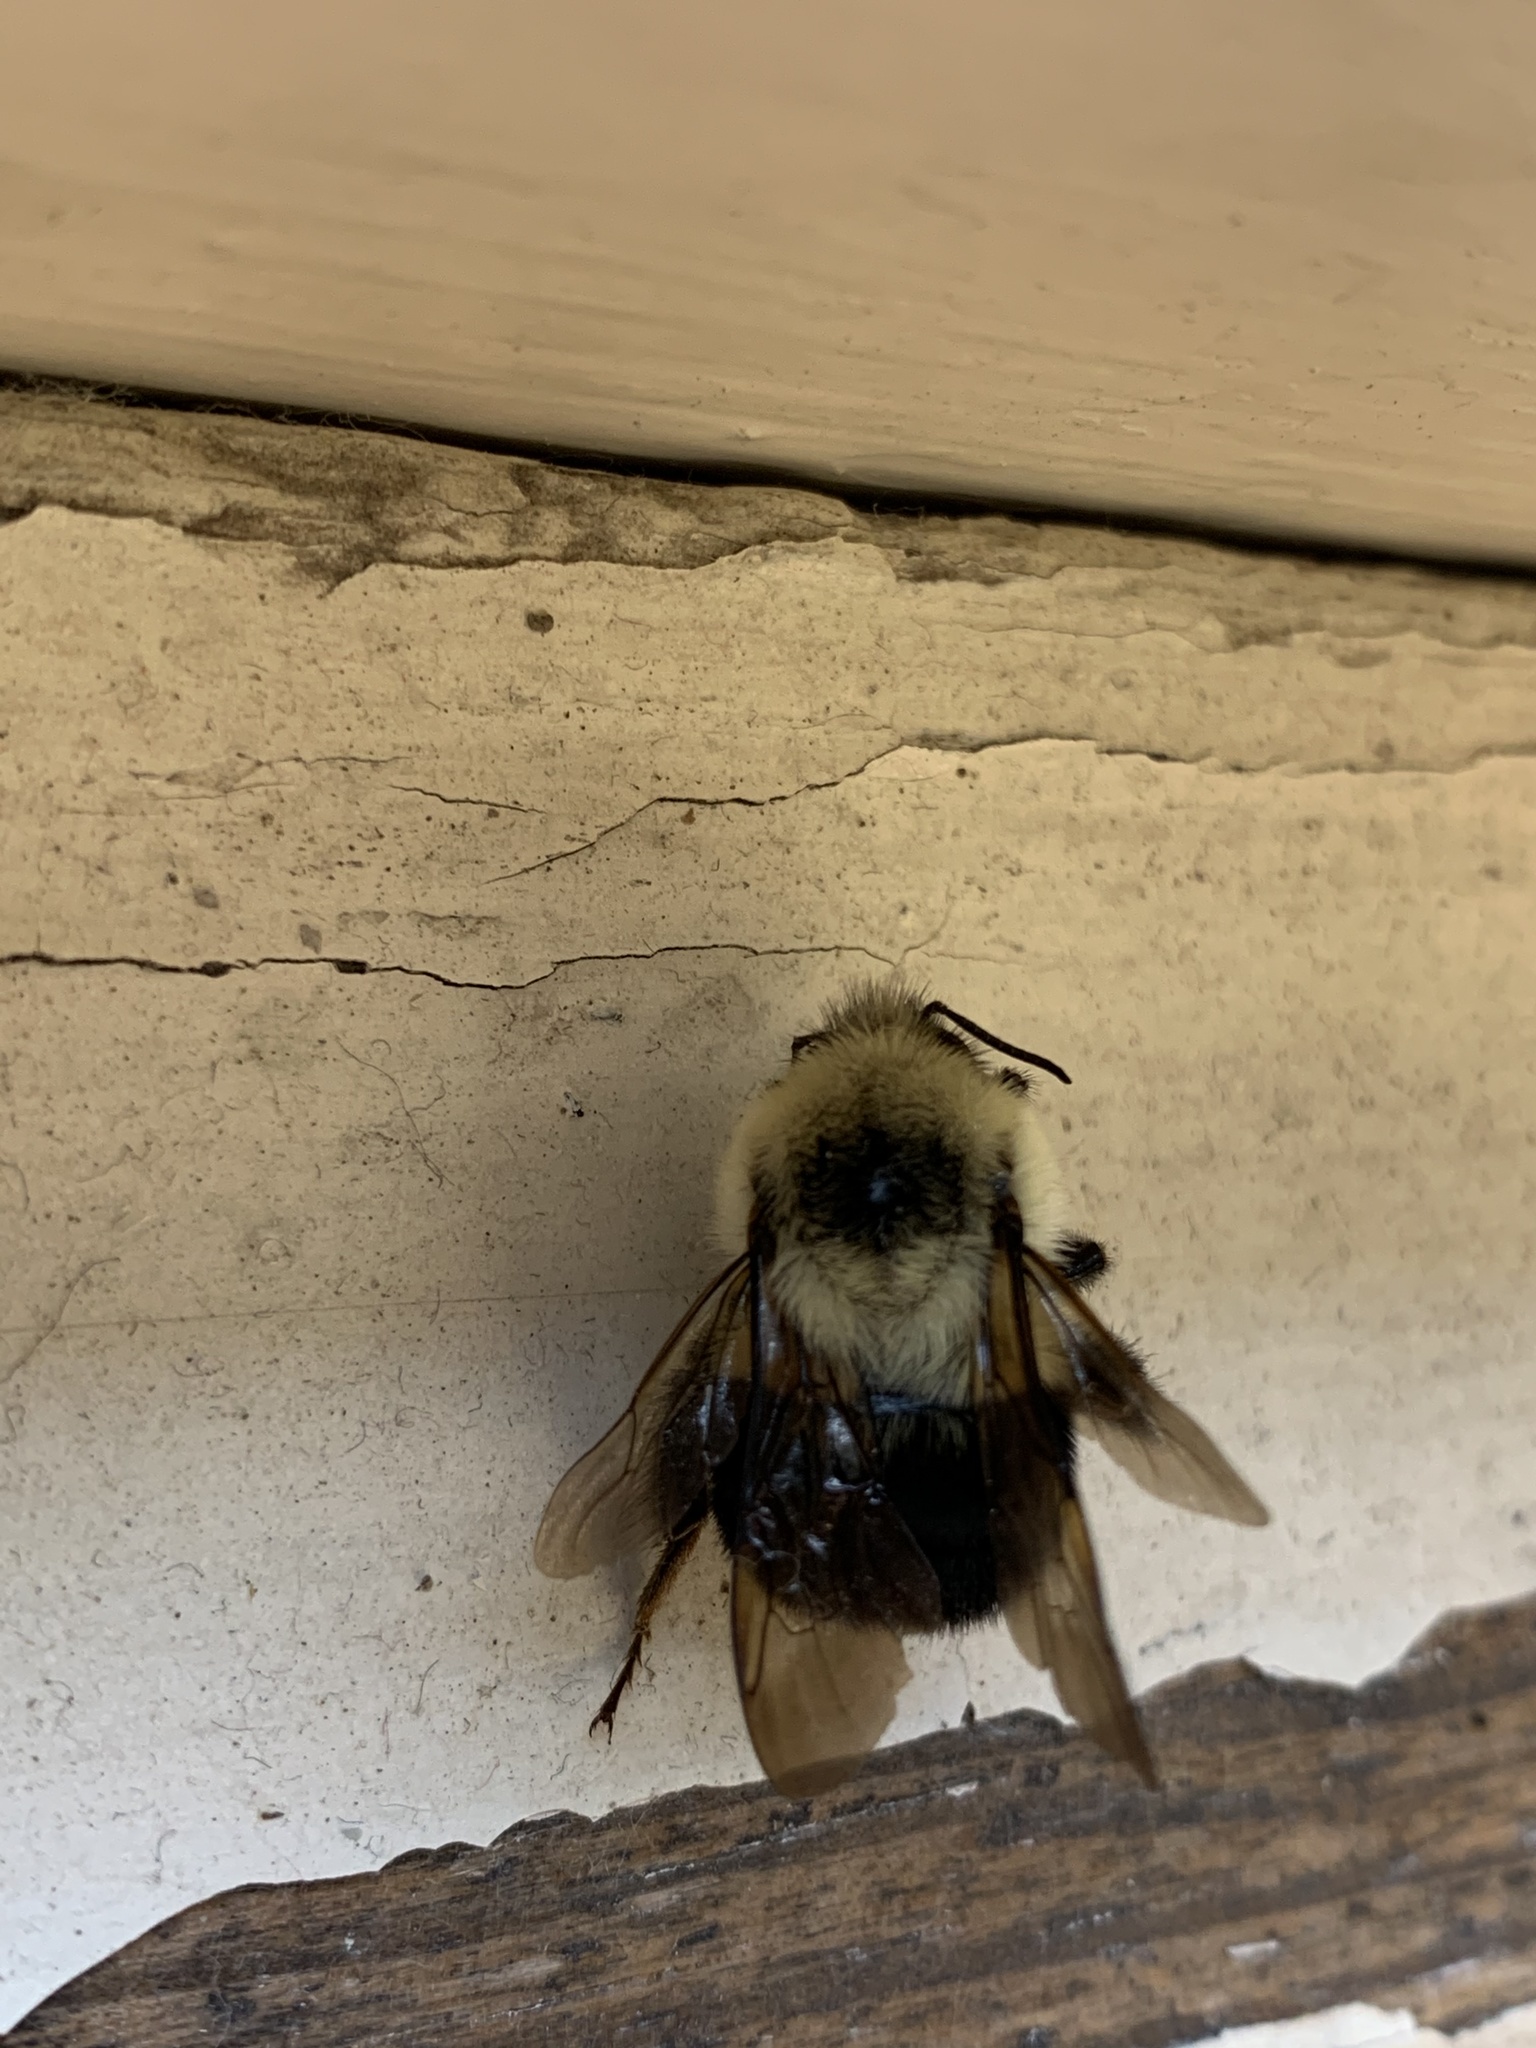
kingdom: Animalia
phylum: Arthropoda
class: Insecta
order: Hymenoptera
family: Apidae
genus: Bombus
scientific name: Bombus bimaculatus
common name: Two-spotted bumble bee
